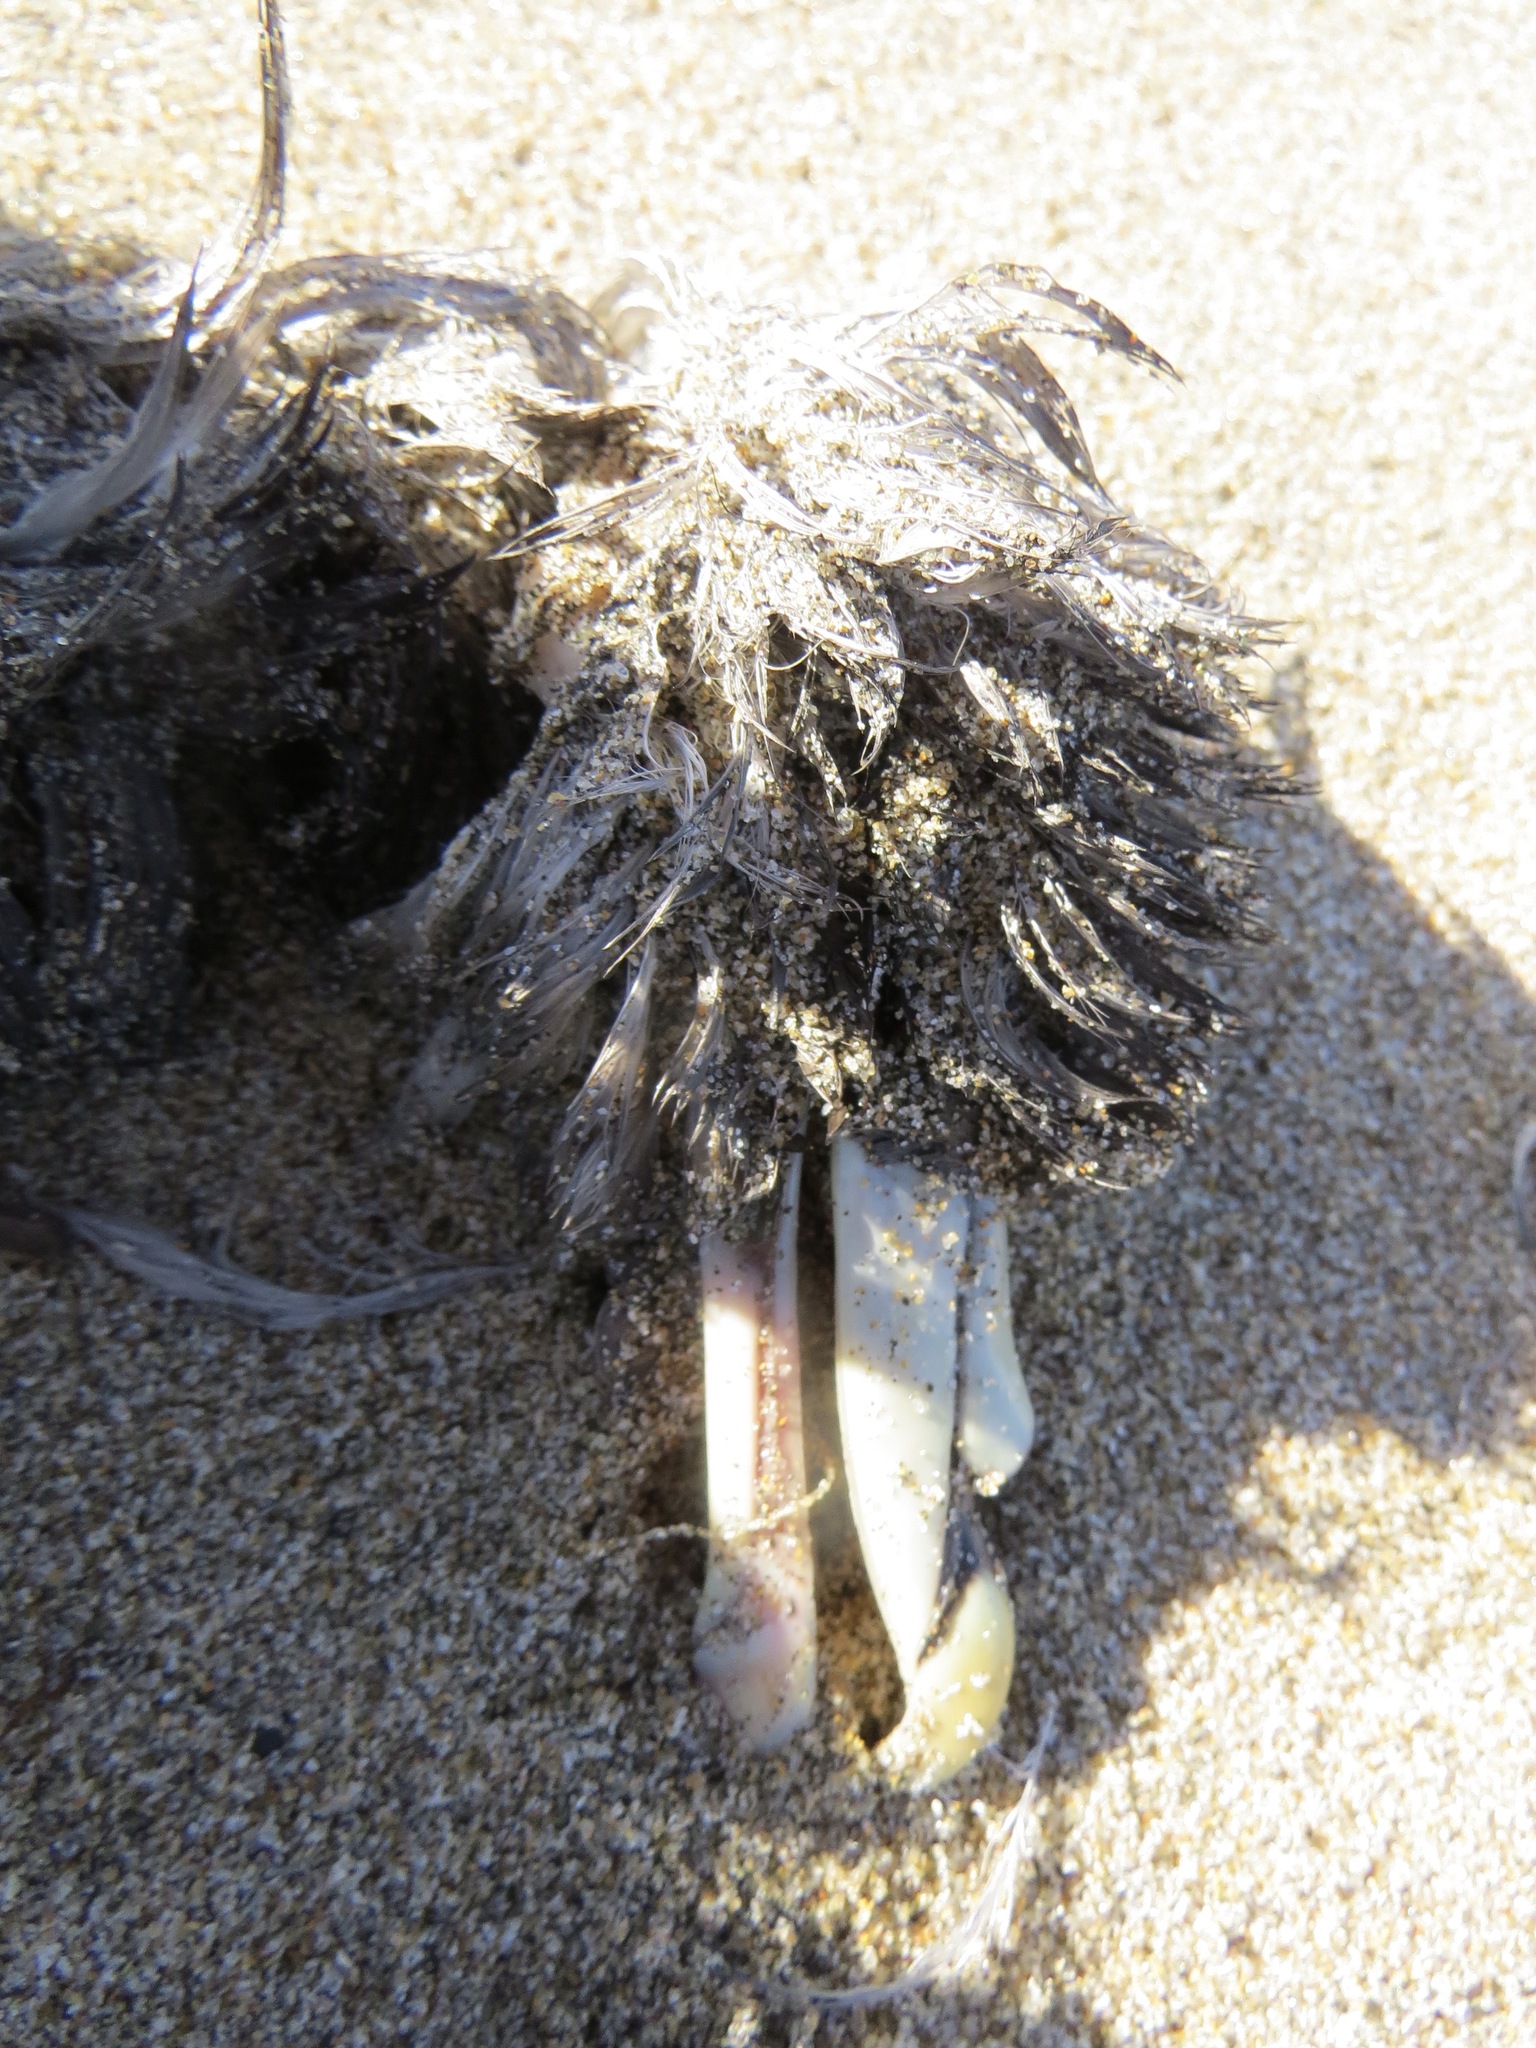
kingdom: Animalia
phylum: Chordata
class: Aves
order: Procellariiformes
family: Procellariidae
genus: Fulmarus
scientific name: Fulmarus glacialis
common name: Northern fulmar
